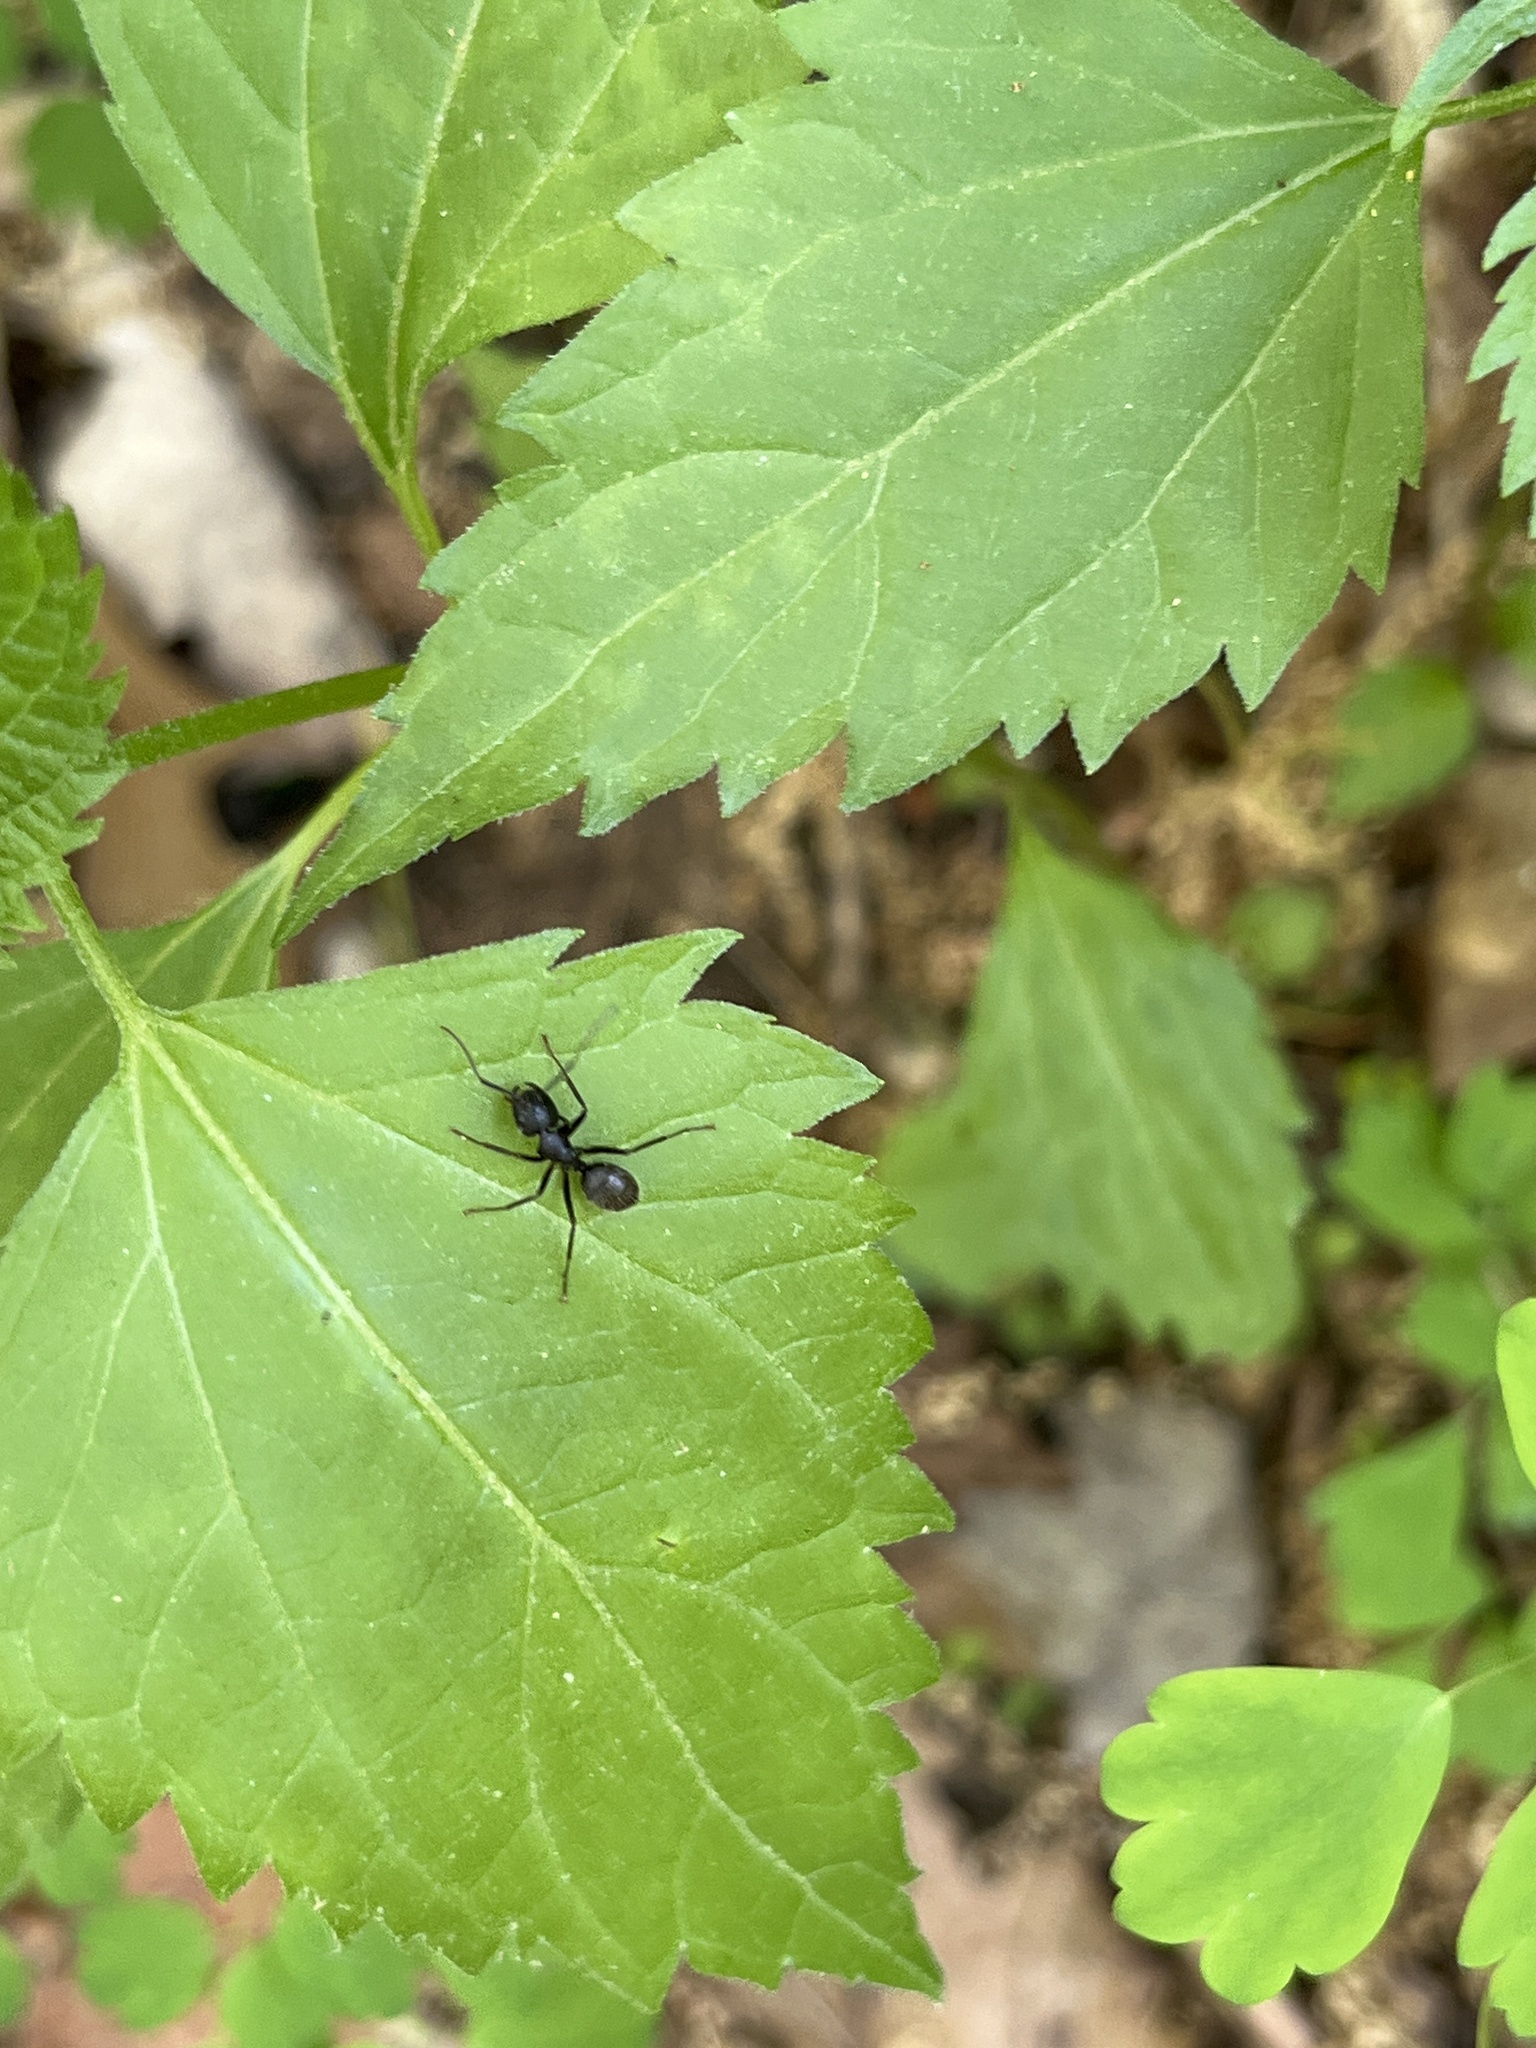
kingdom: Animalia
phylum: Arthropoda
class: Insecta
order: Hymenoptera
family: Formicidae
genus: Camponotus
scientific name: Camponotus pennsylvanicus
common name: Black carpenter ant
